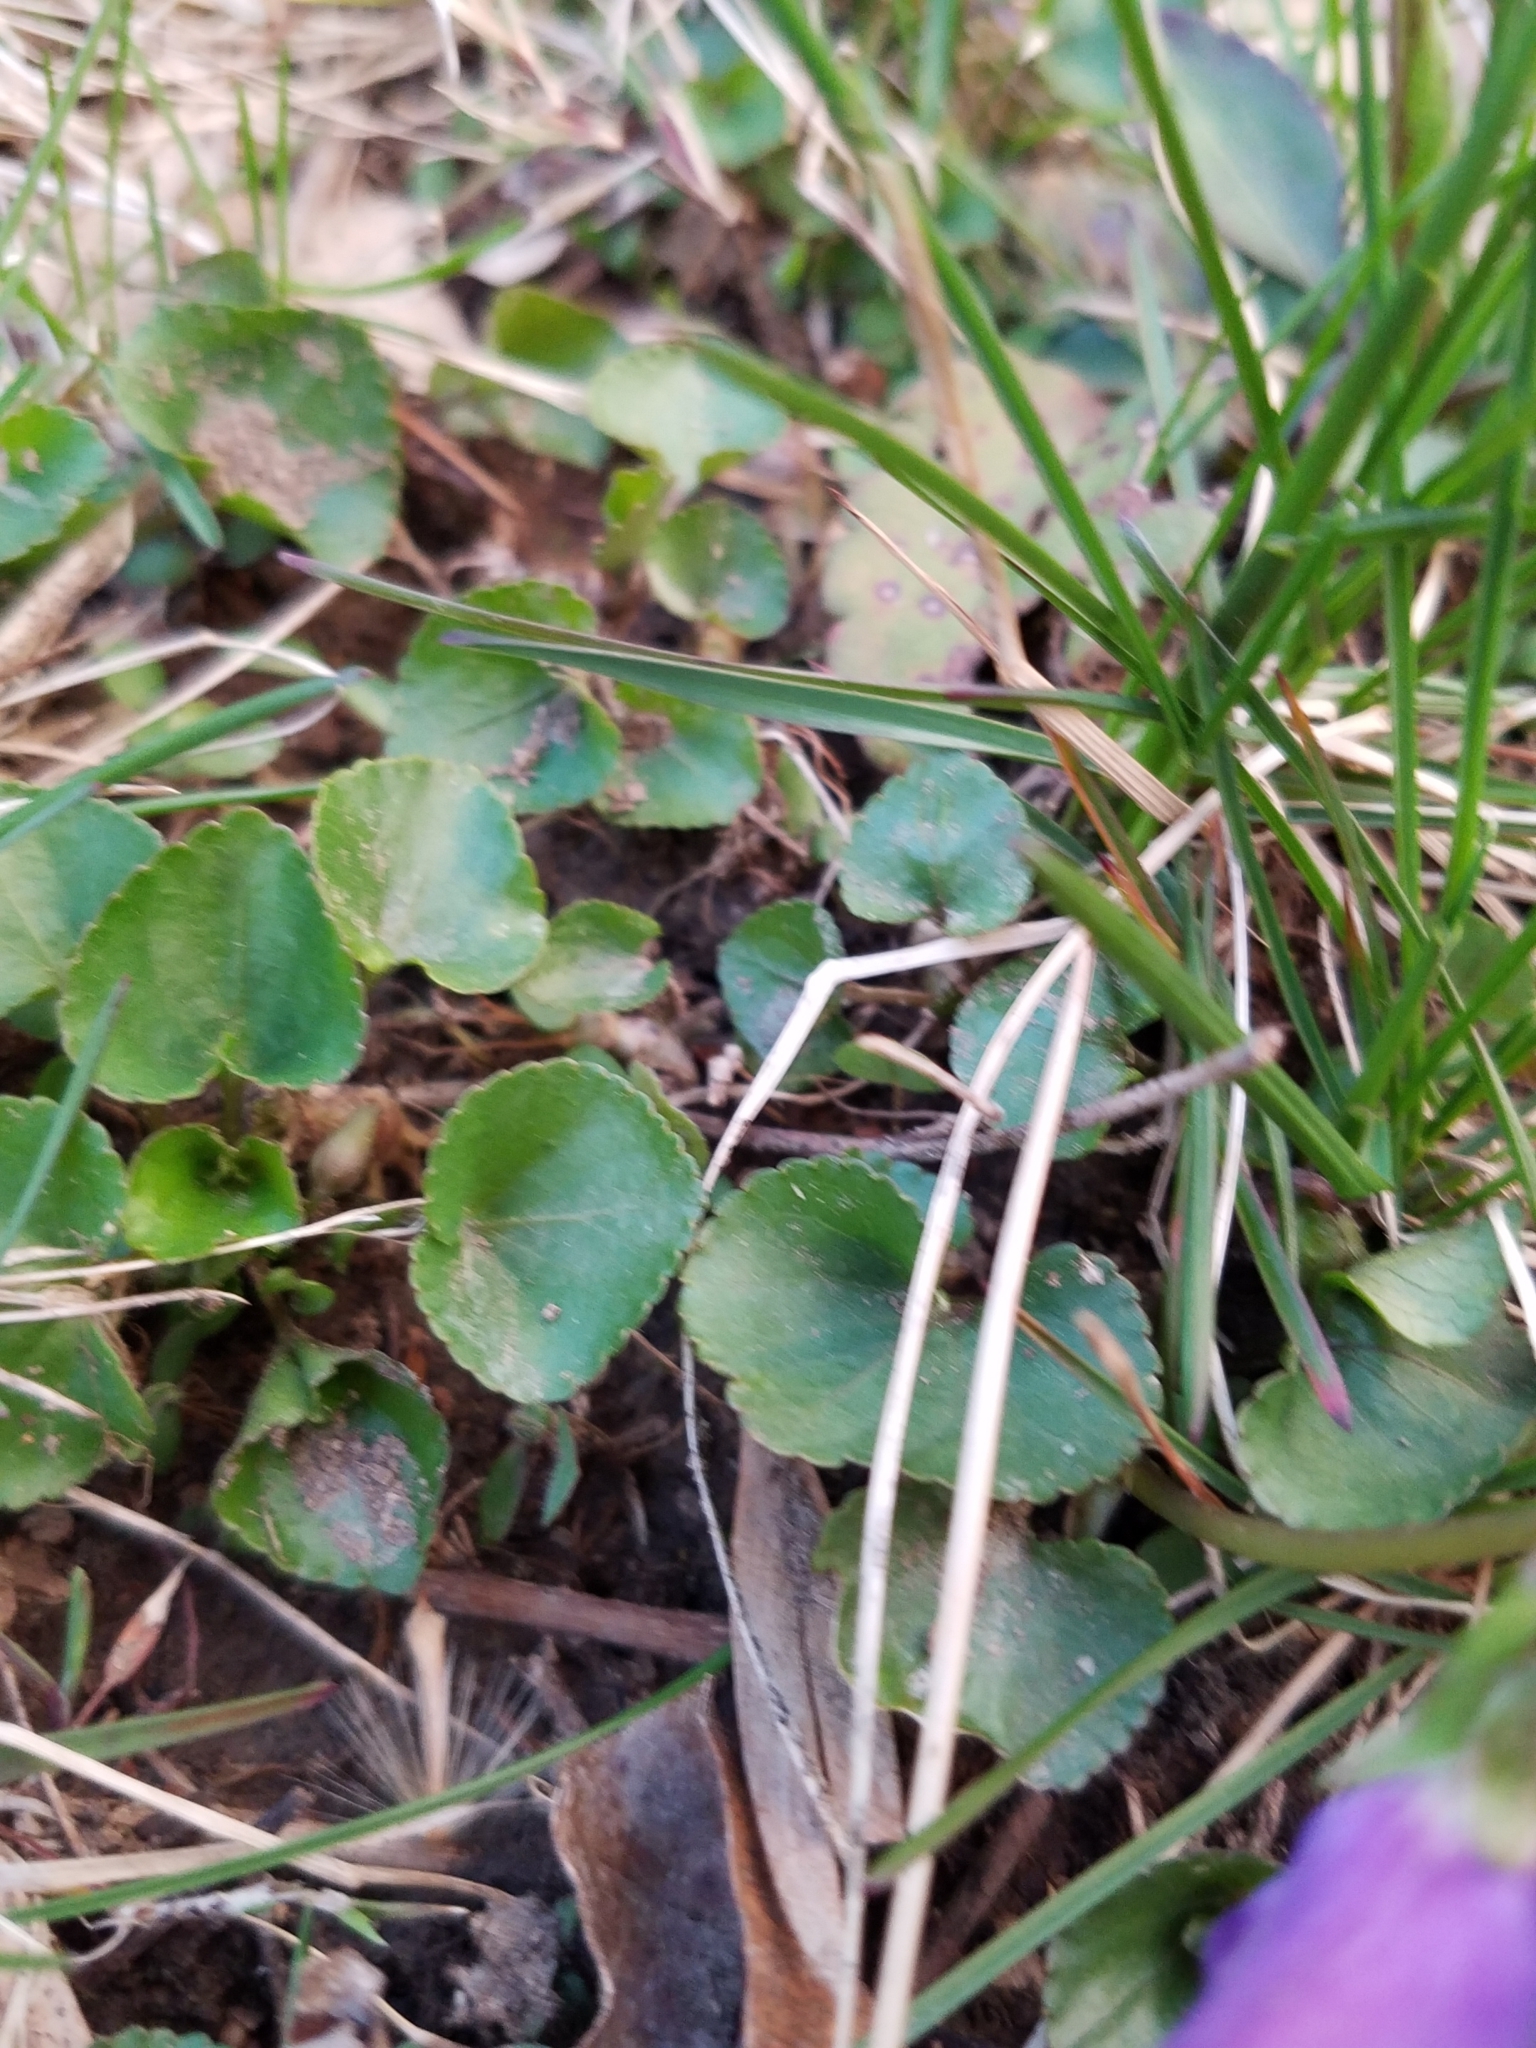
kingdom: Plantae
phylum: Tracheophyta
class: Magnoliopsida
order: Malpighiales
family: Violaceae
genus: Viola
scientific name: Viola sororia
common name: Dooryard violet
